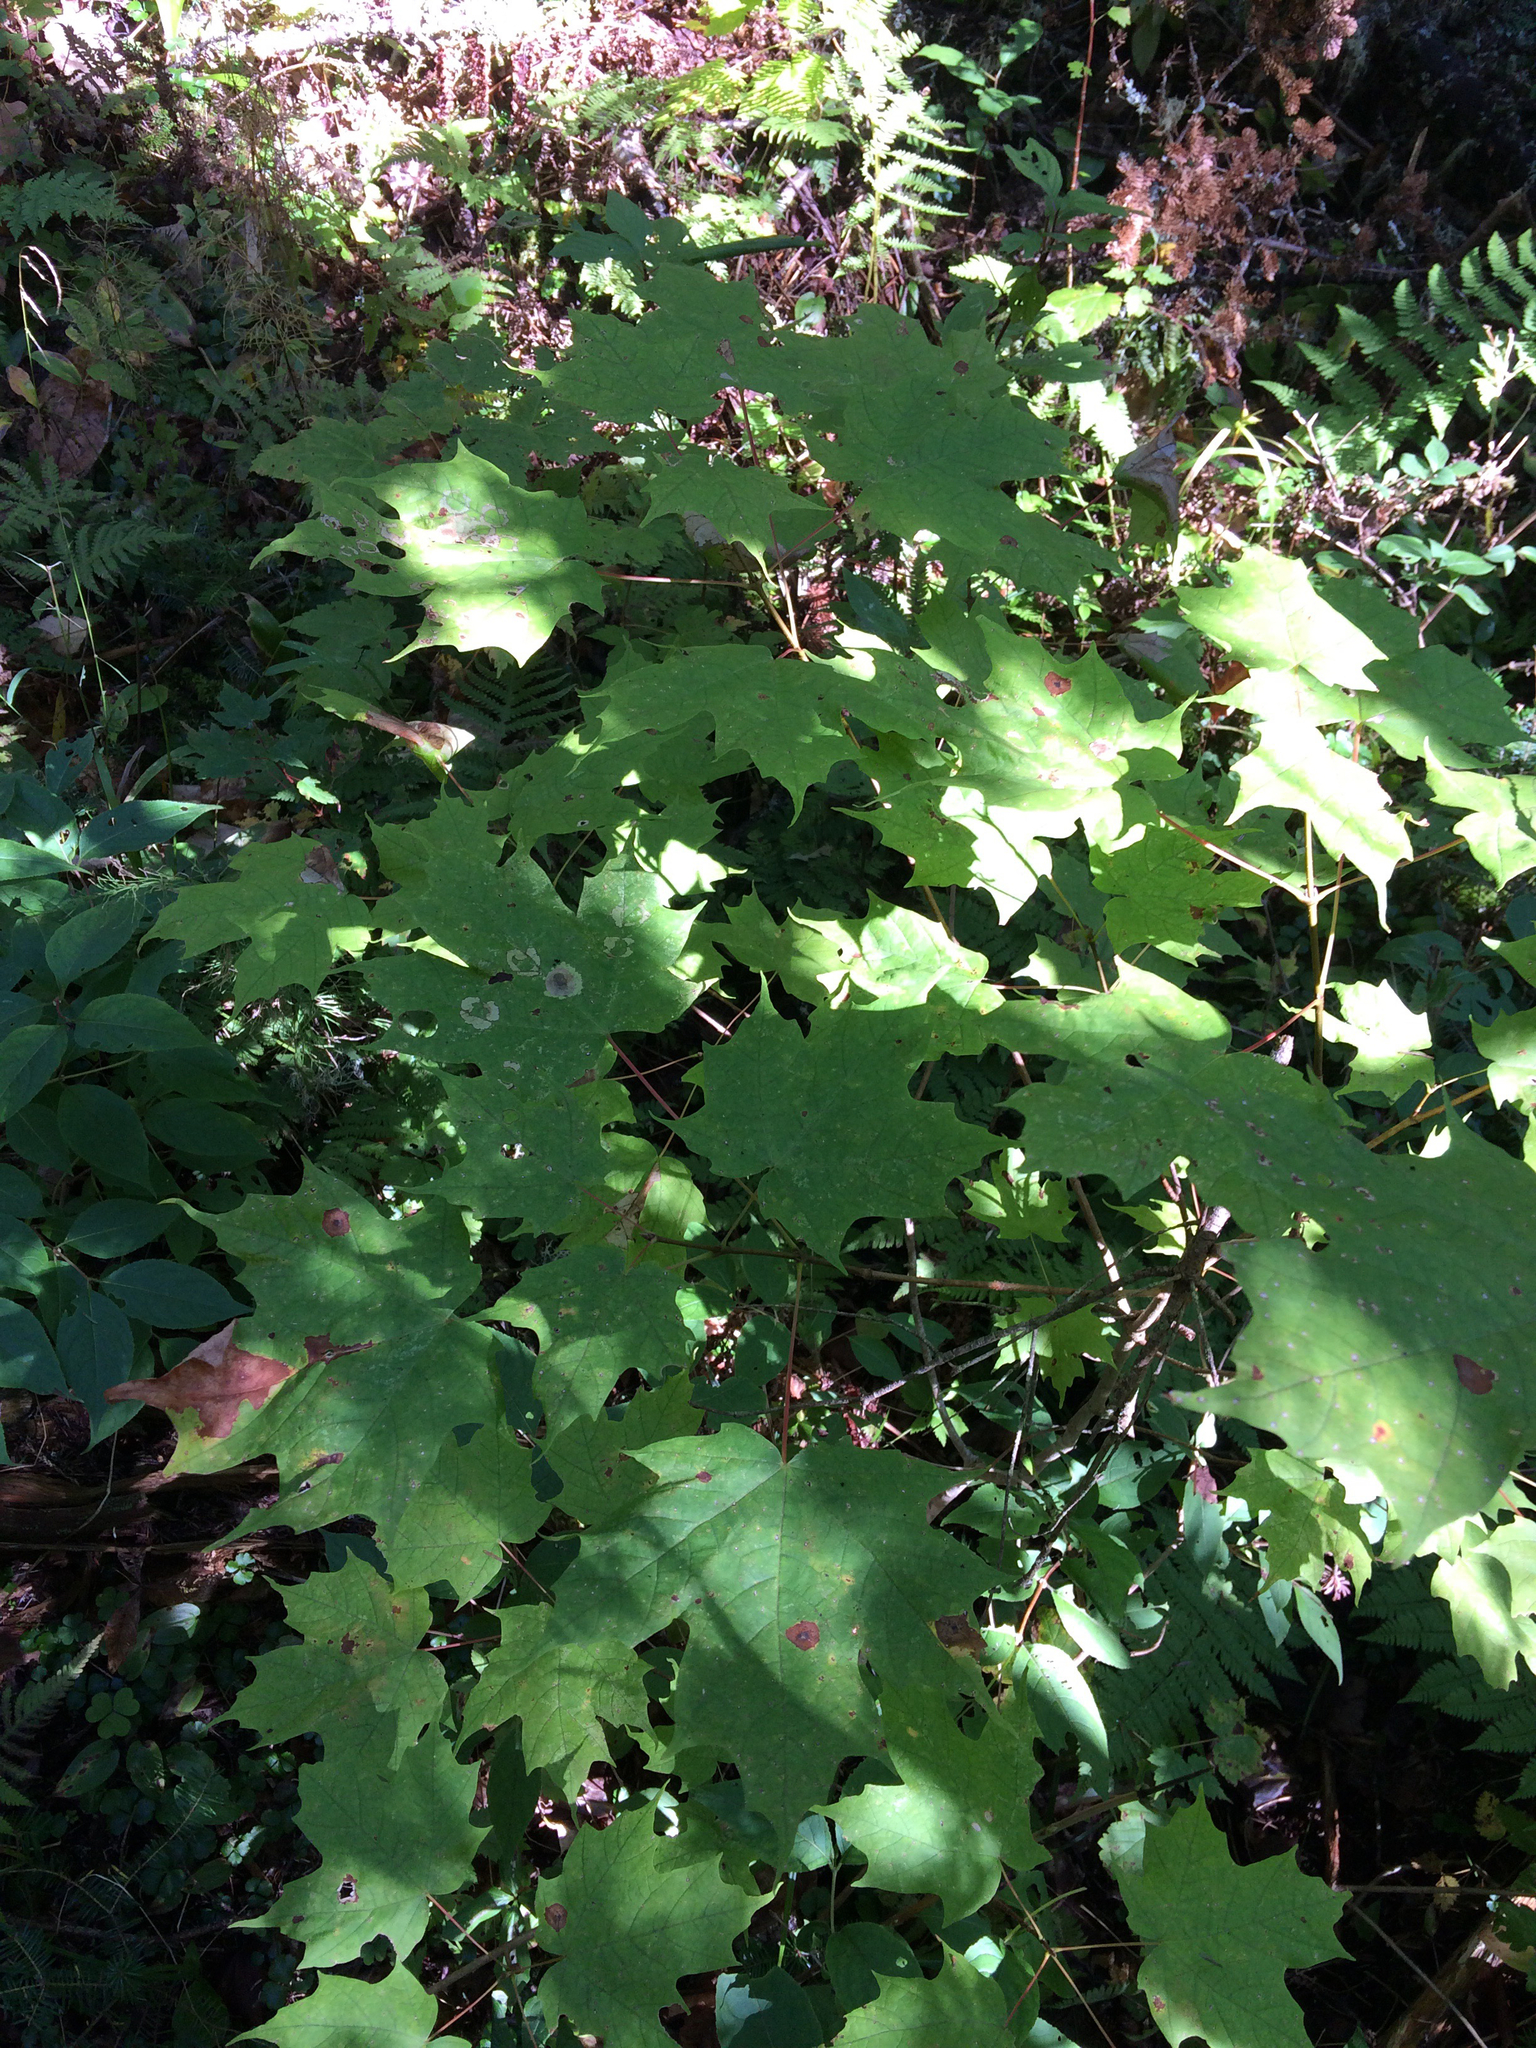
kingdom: Plantae
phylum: Tracheophyta
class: Magnoliopsida
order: Sapindales
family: Sapindaceae
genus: Acer
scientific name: Acer saccharum
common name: Sugar maple
